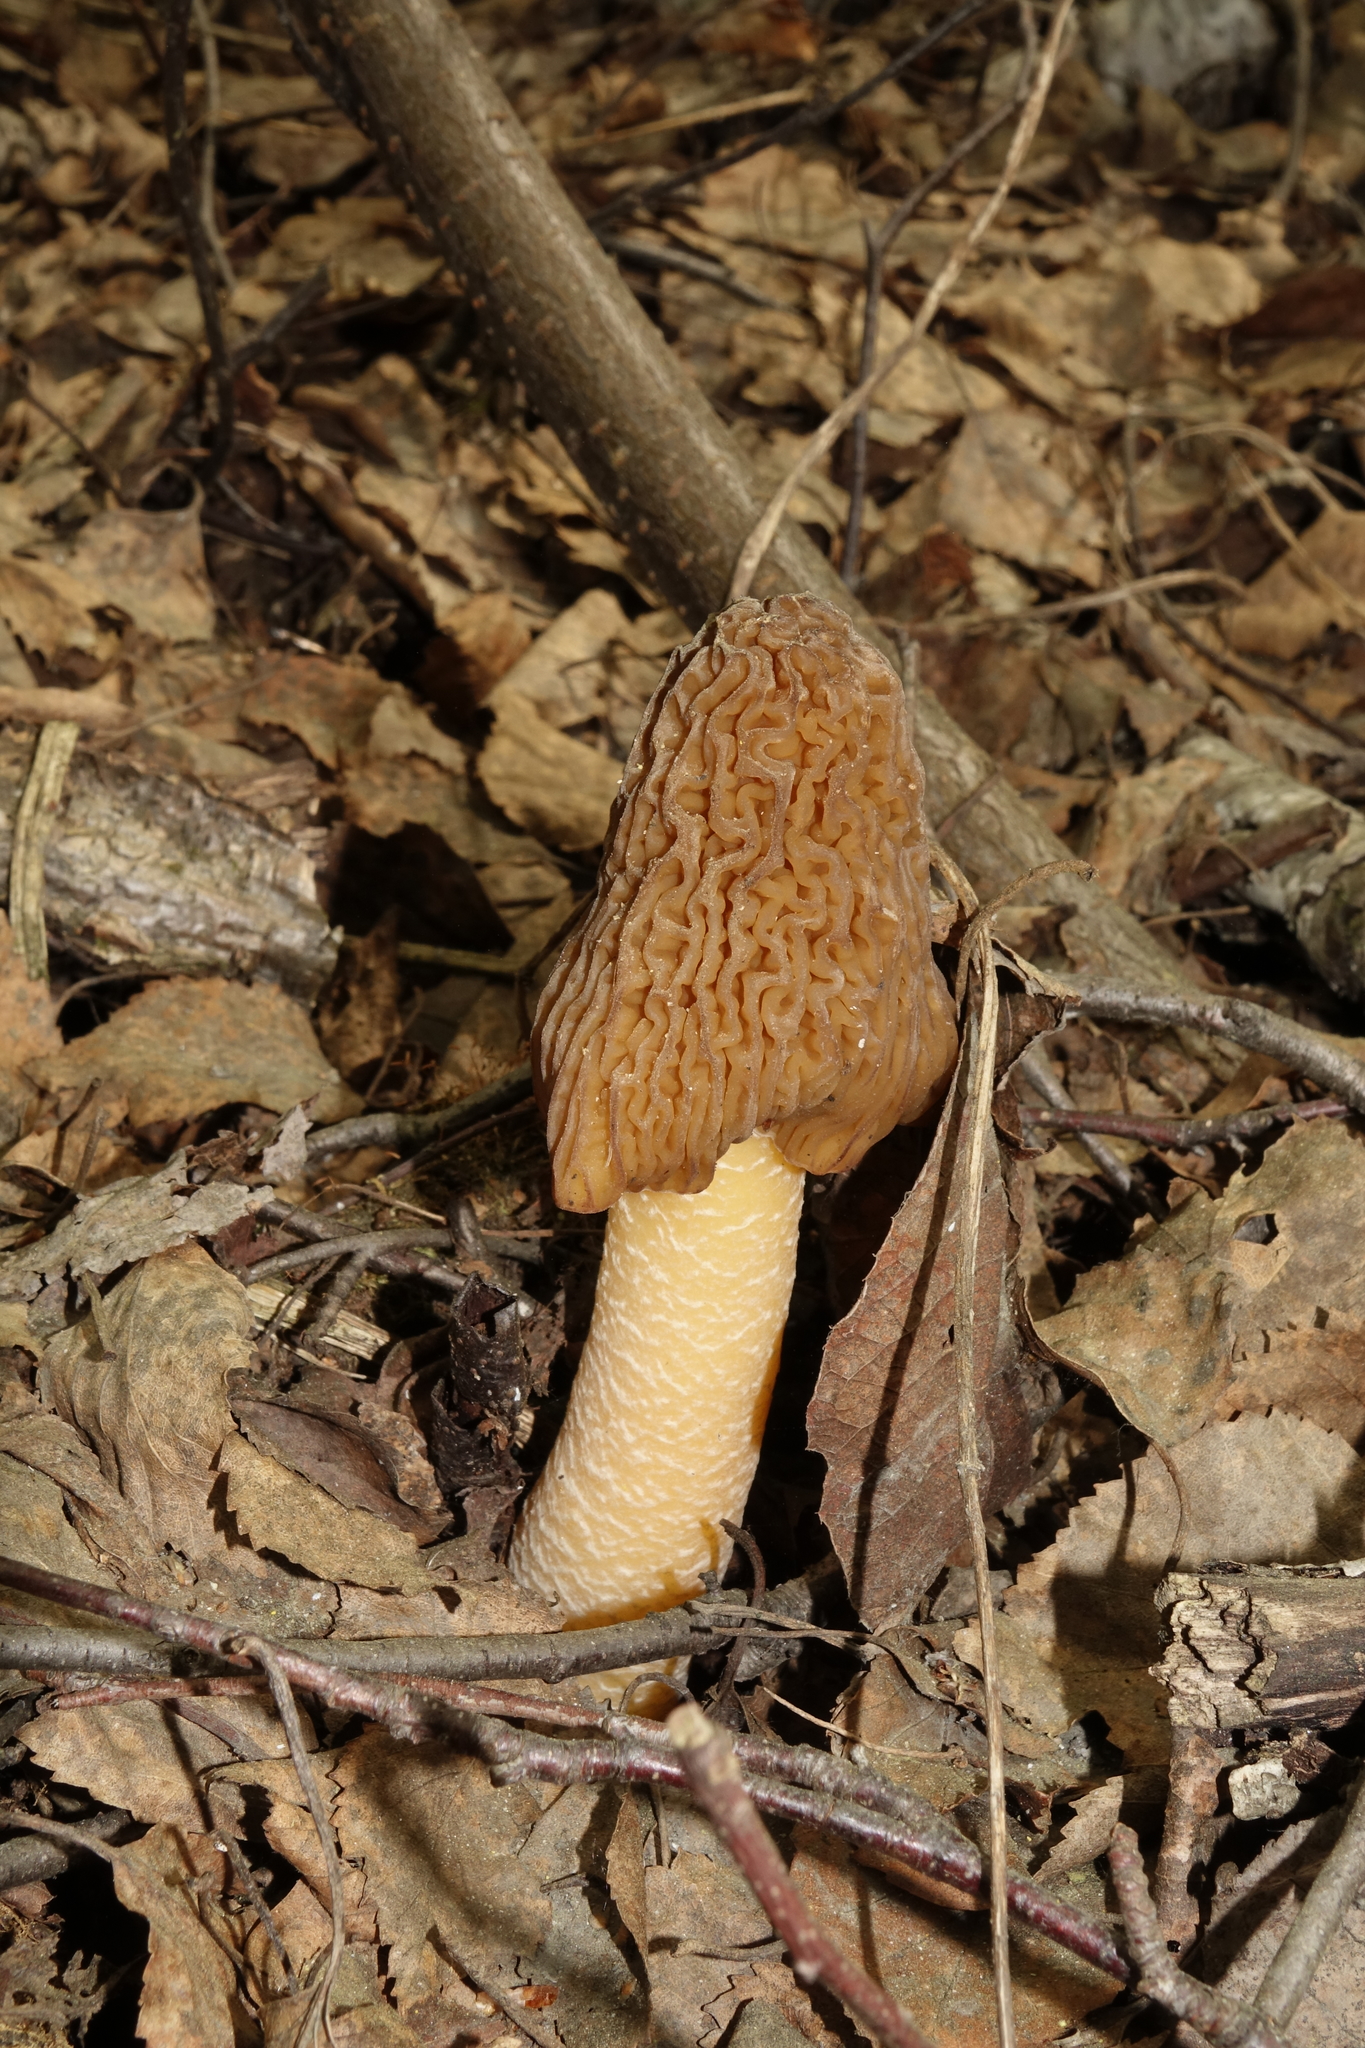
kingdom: Fungi
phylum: Ascomycota
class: Pezizomycetes
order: Pezizales
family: Morchellaceae
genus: Verpa
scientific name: Verpa bohemica
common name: Wrinkled thimble morel
